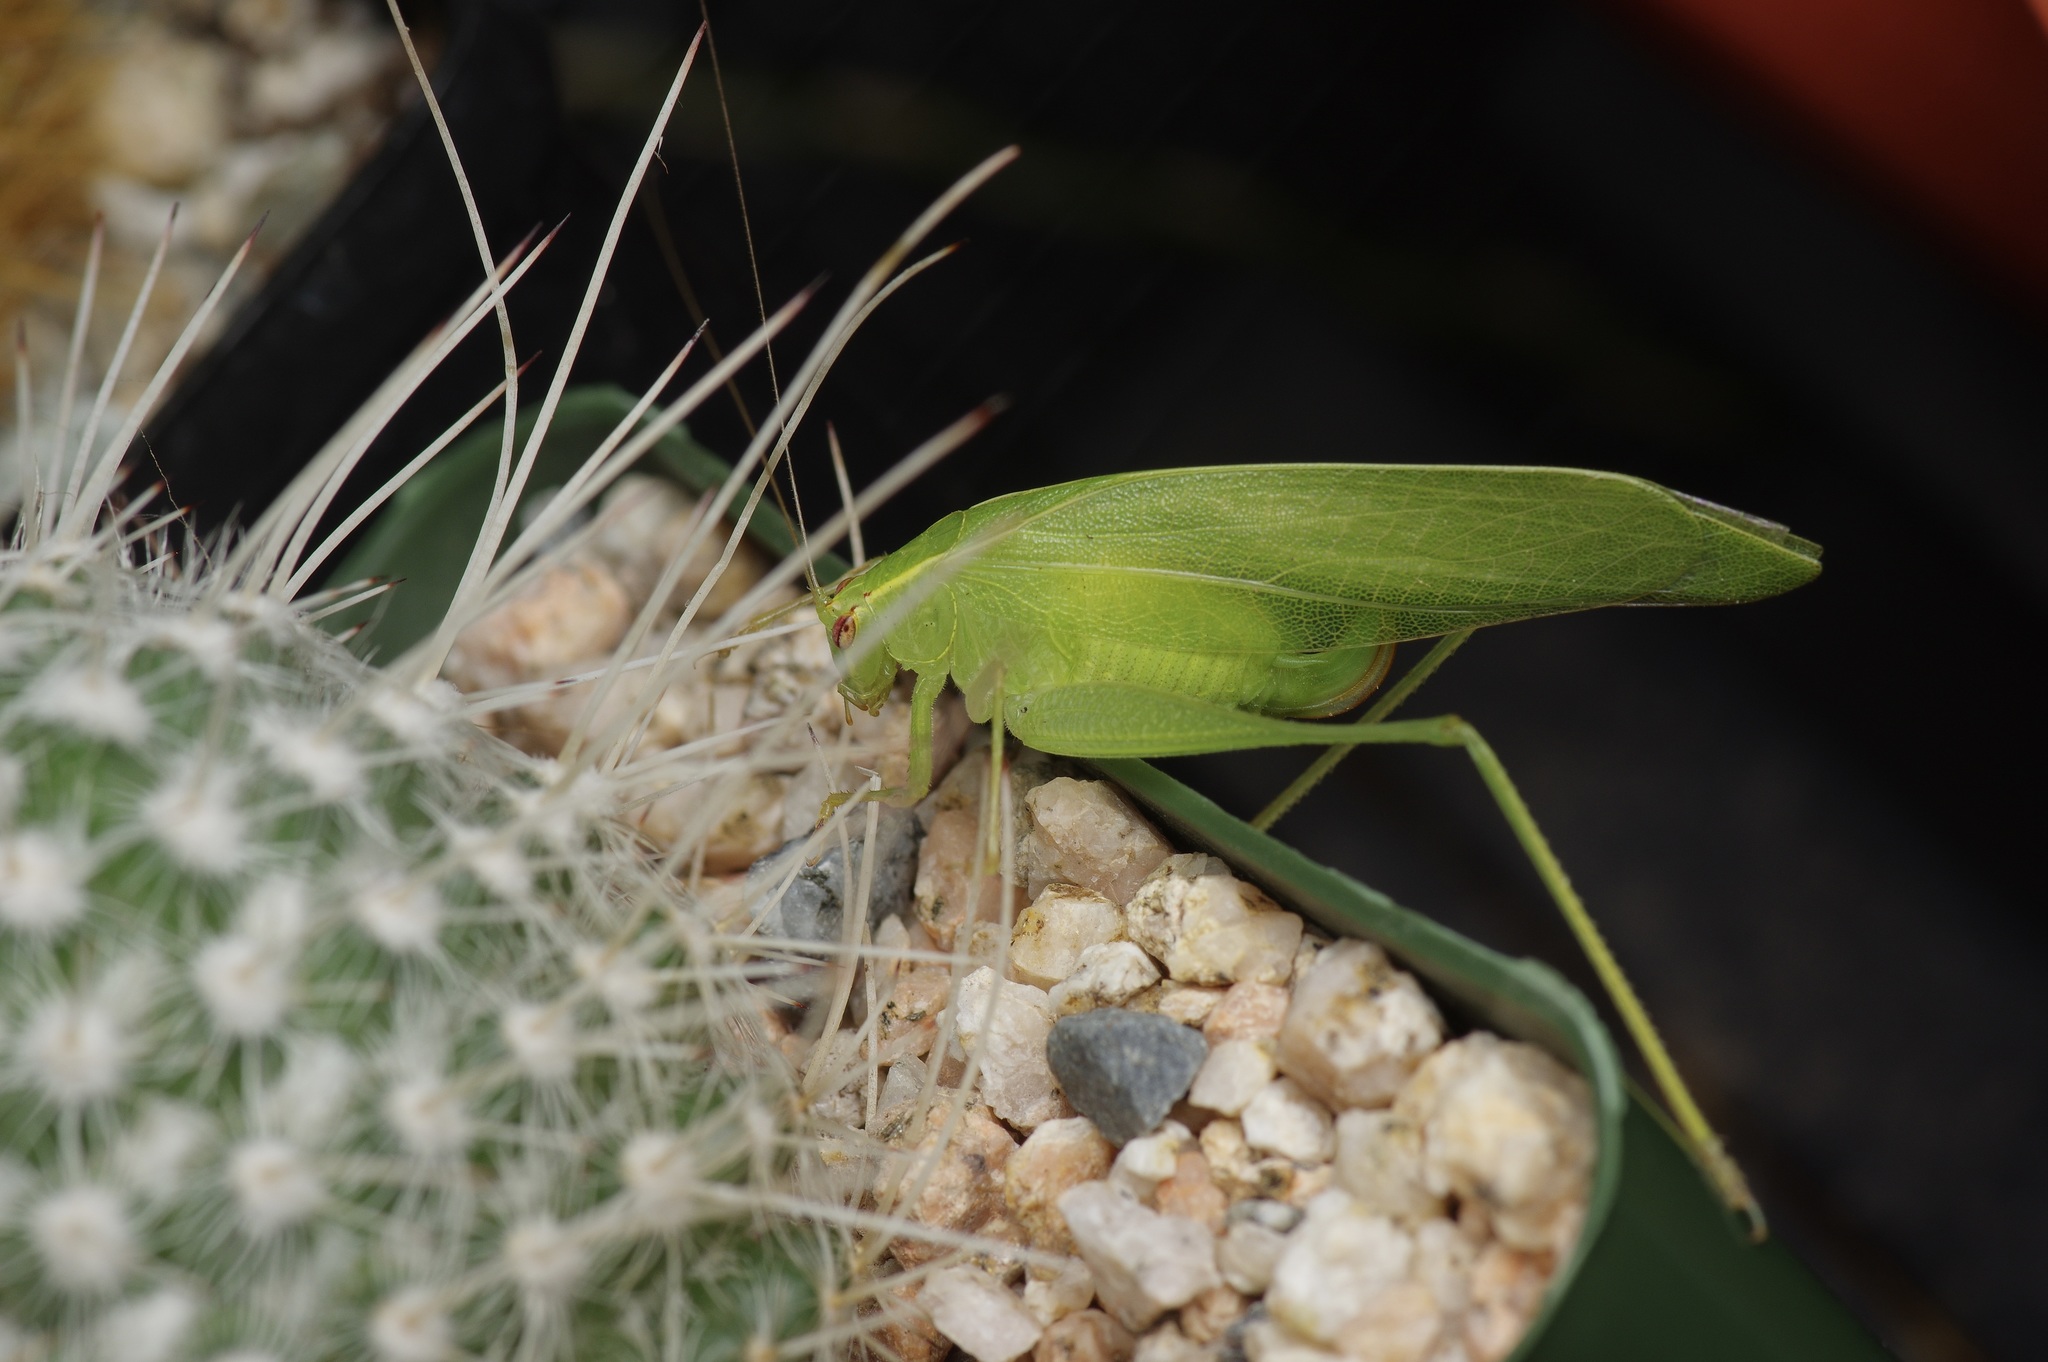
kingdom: Animalia
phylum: Arthropoda
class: Insecta
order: Orthoptera
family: Tettigoniidae
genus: Montezumina
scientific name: Montezumina modesta
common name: Modest katydid
